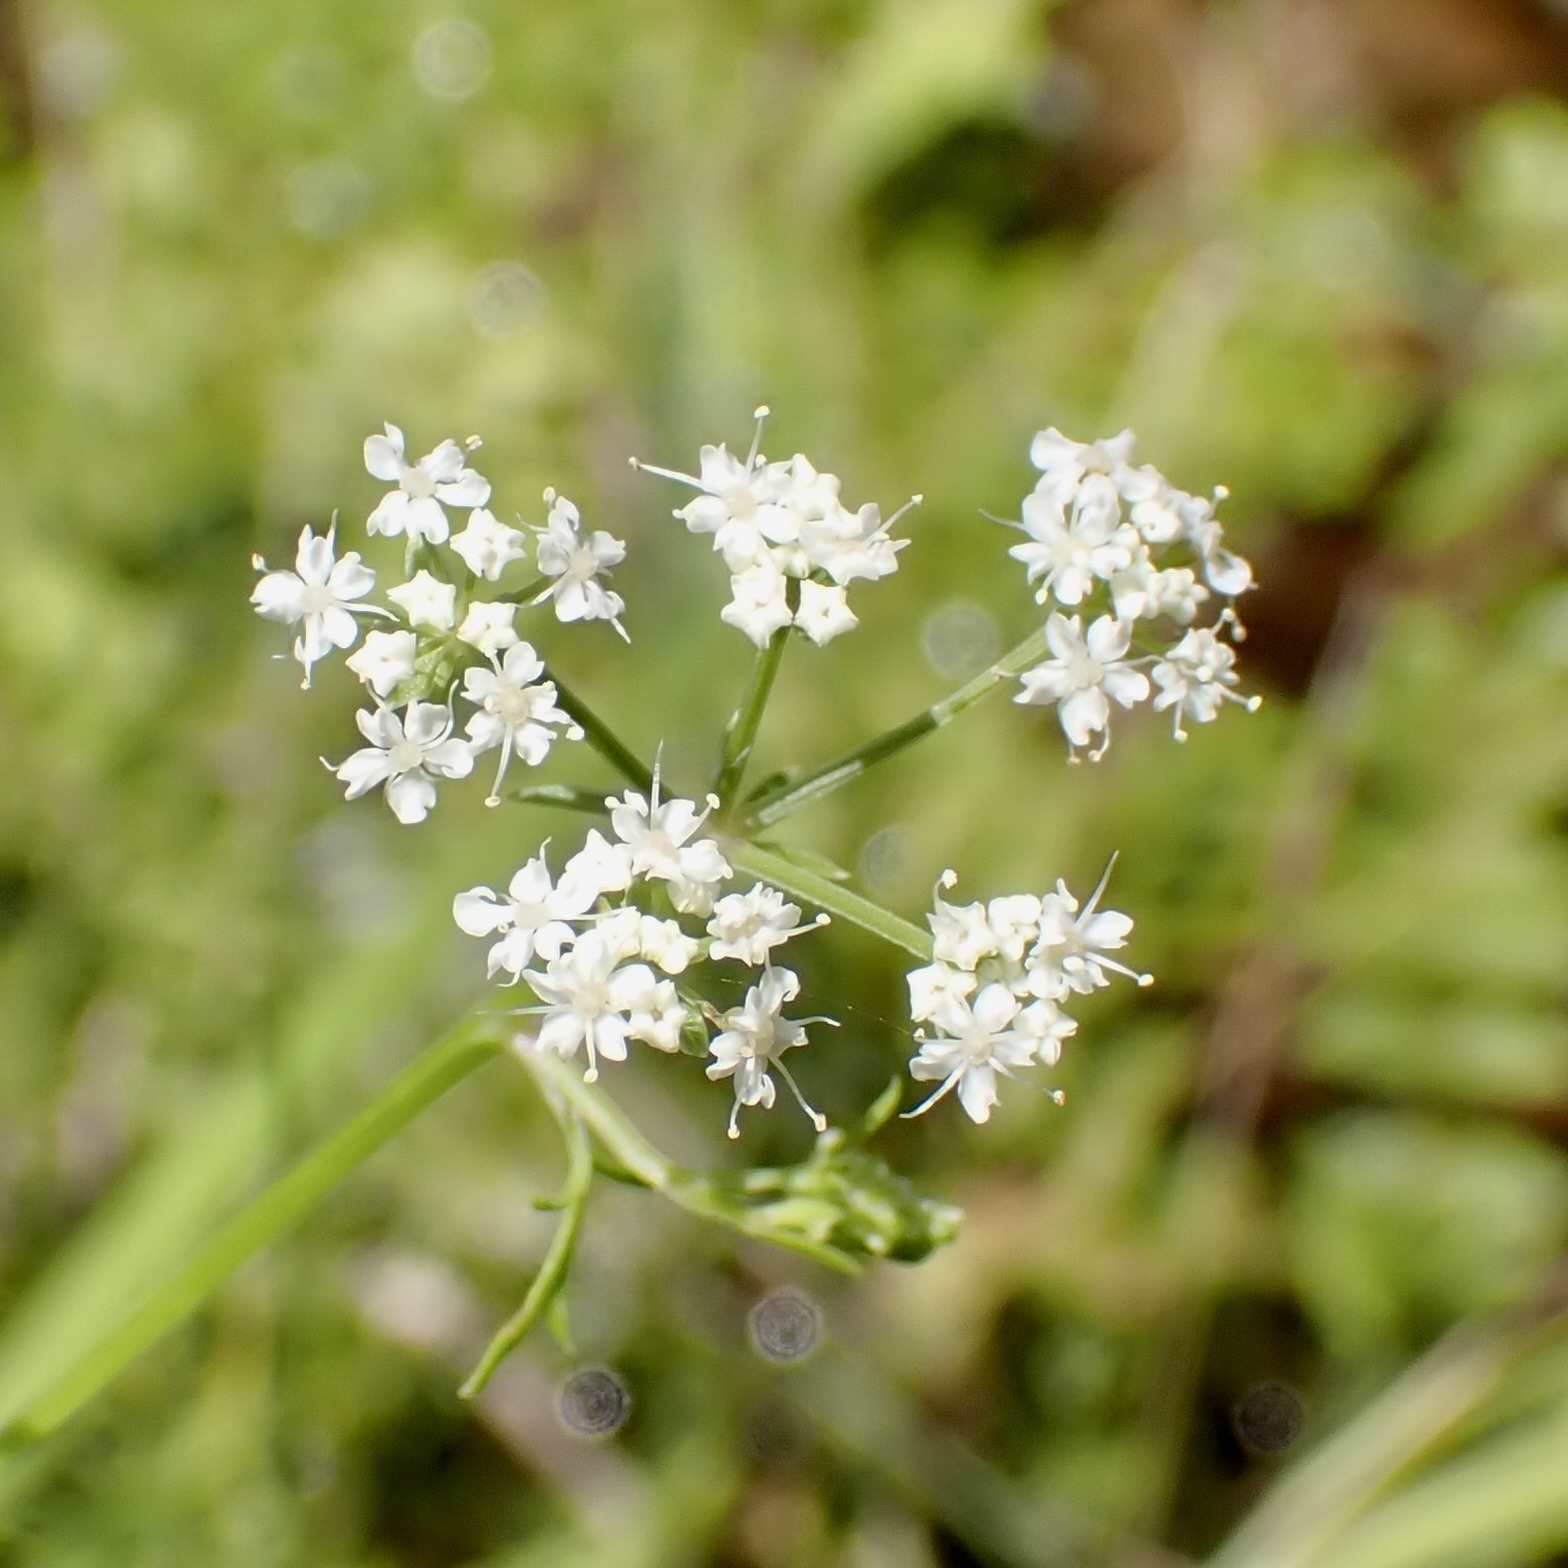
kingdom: Plantae
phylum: Tracheophyta
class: Magnoliopsida
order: Apiales
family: Apiaceae
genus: Berula
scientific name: Berula erecta
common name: Lesser water-parsnip
